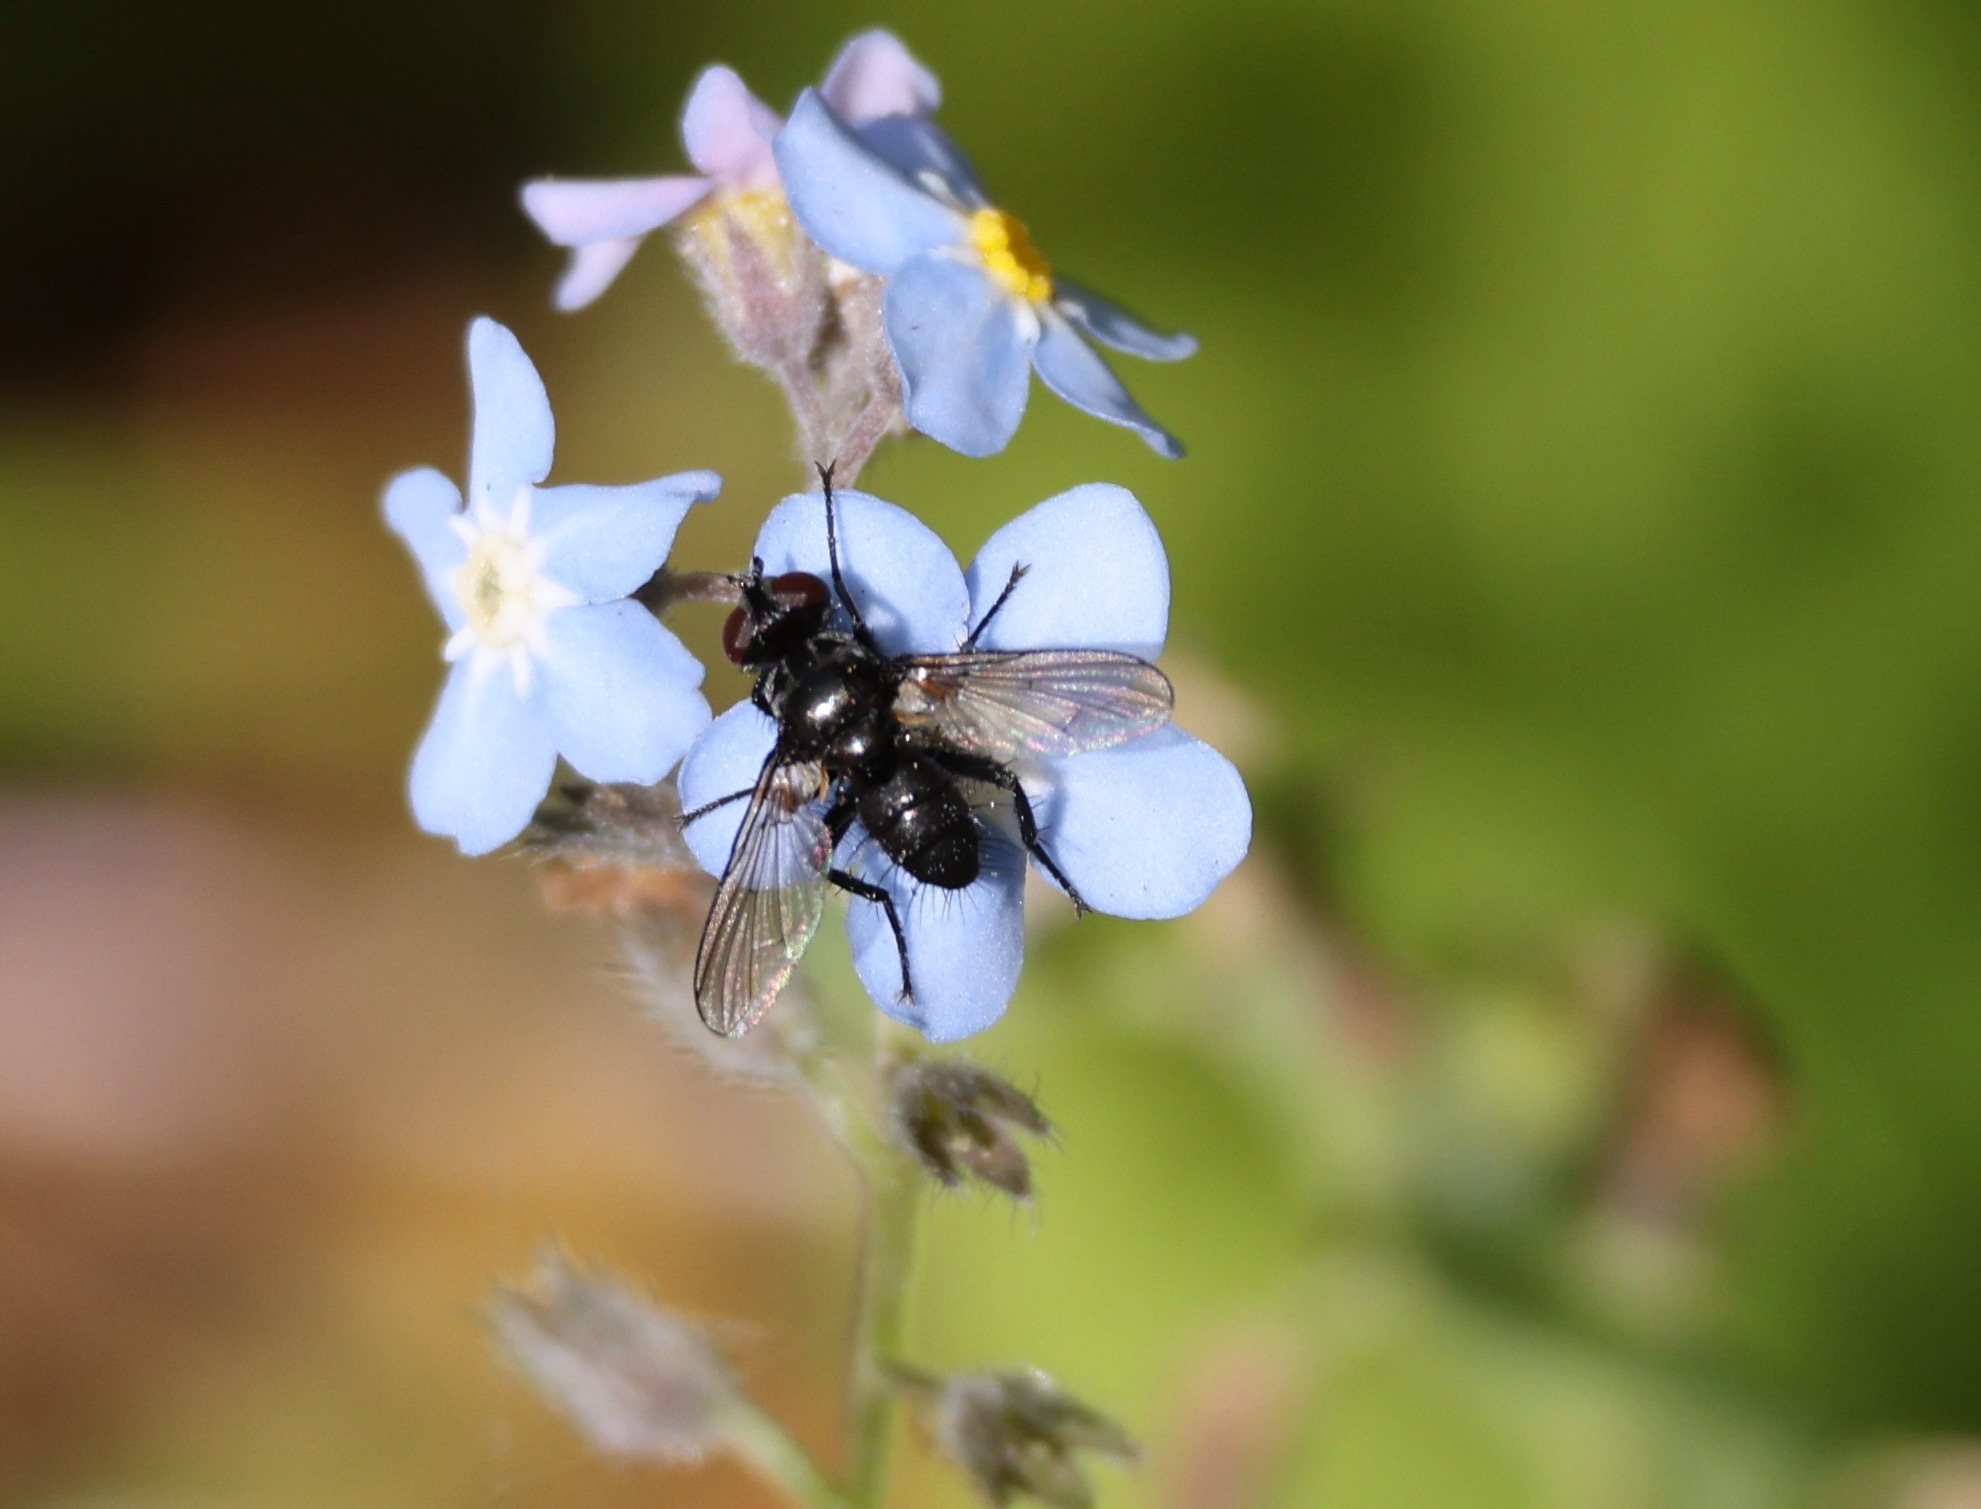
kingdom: Animalia
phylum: Arthropoda
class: Insecta
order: Diptera
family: Tachinidae
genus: Phania
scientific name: Phania funesta
